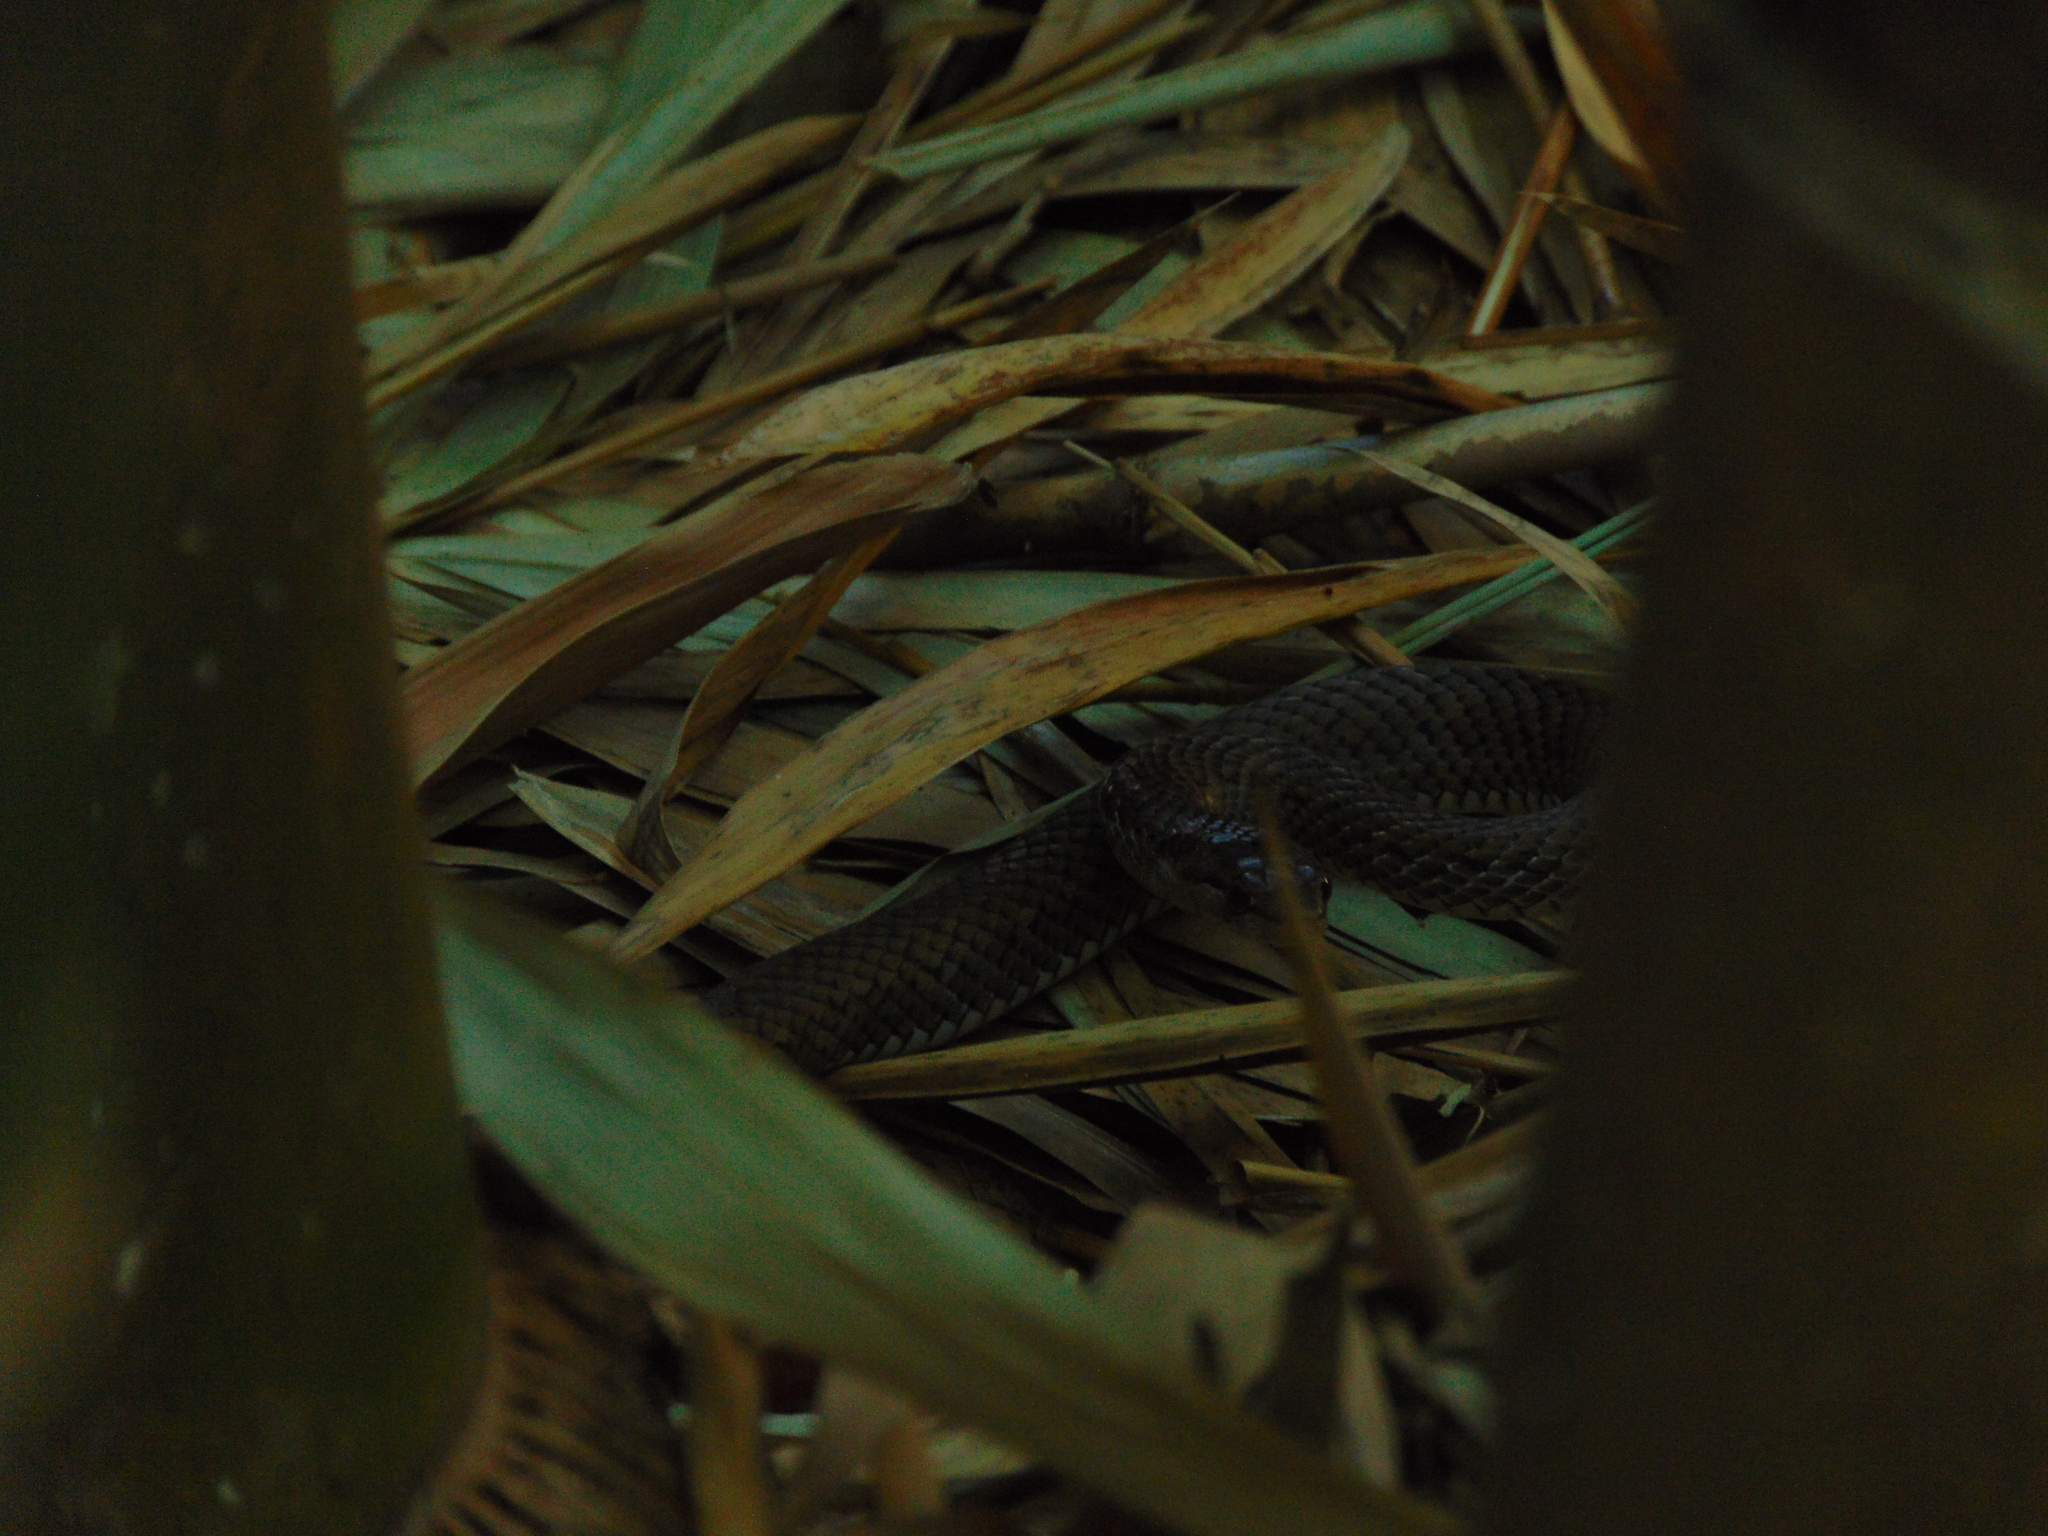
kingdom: Animalia
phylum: Chordata
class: Squamata
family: Colubridae
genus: Borikenophis
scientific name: Borikenophis portoricensis
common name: Puerto rican racer
